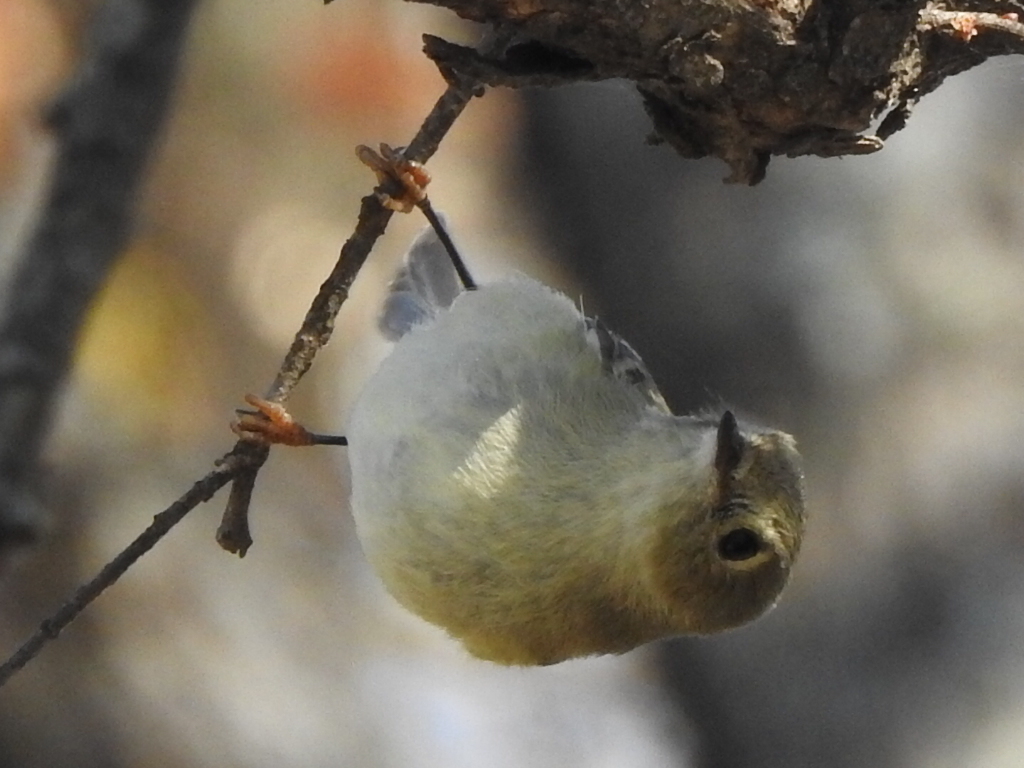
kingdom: Animalia
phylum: Chordata
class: Aves
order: Passeriformes
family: Regulidae
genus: Regulus
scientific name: Regulus calendula
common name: Ruby-crowned kinglet
